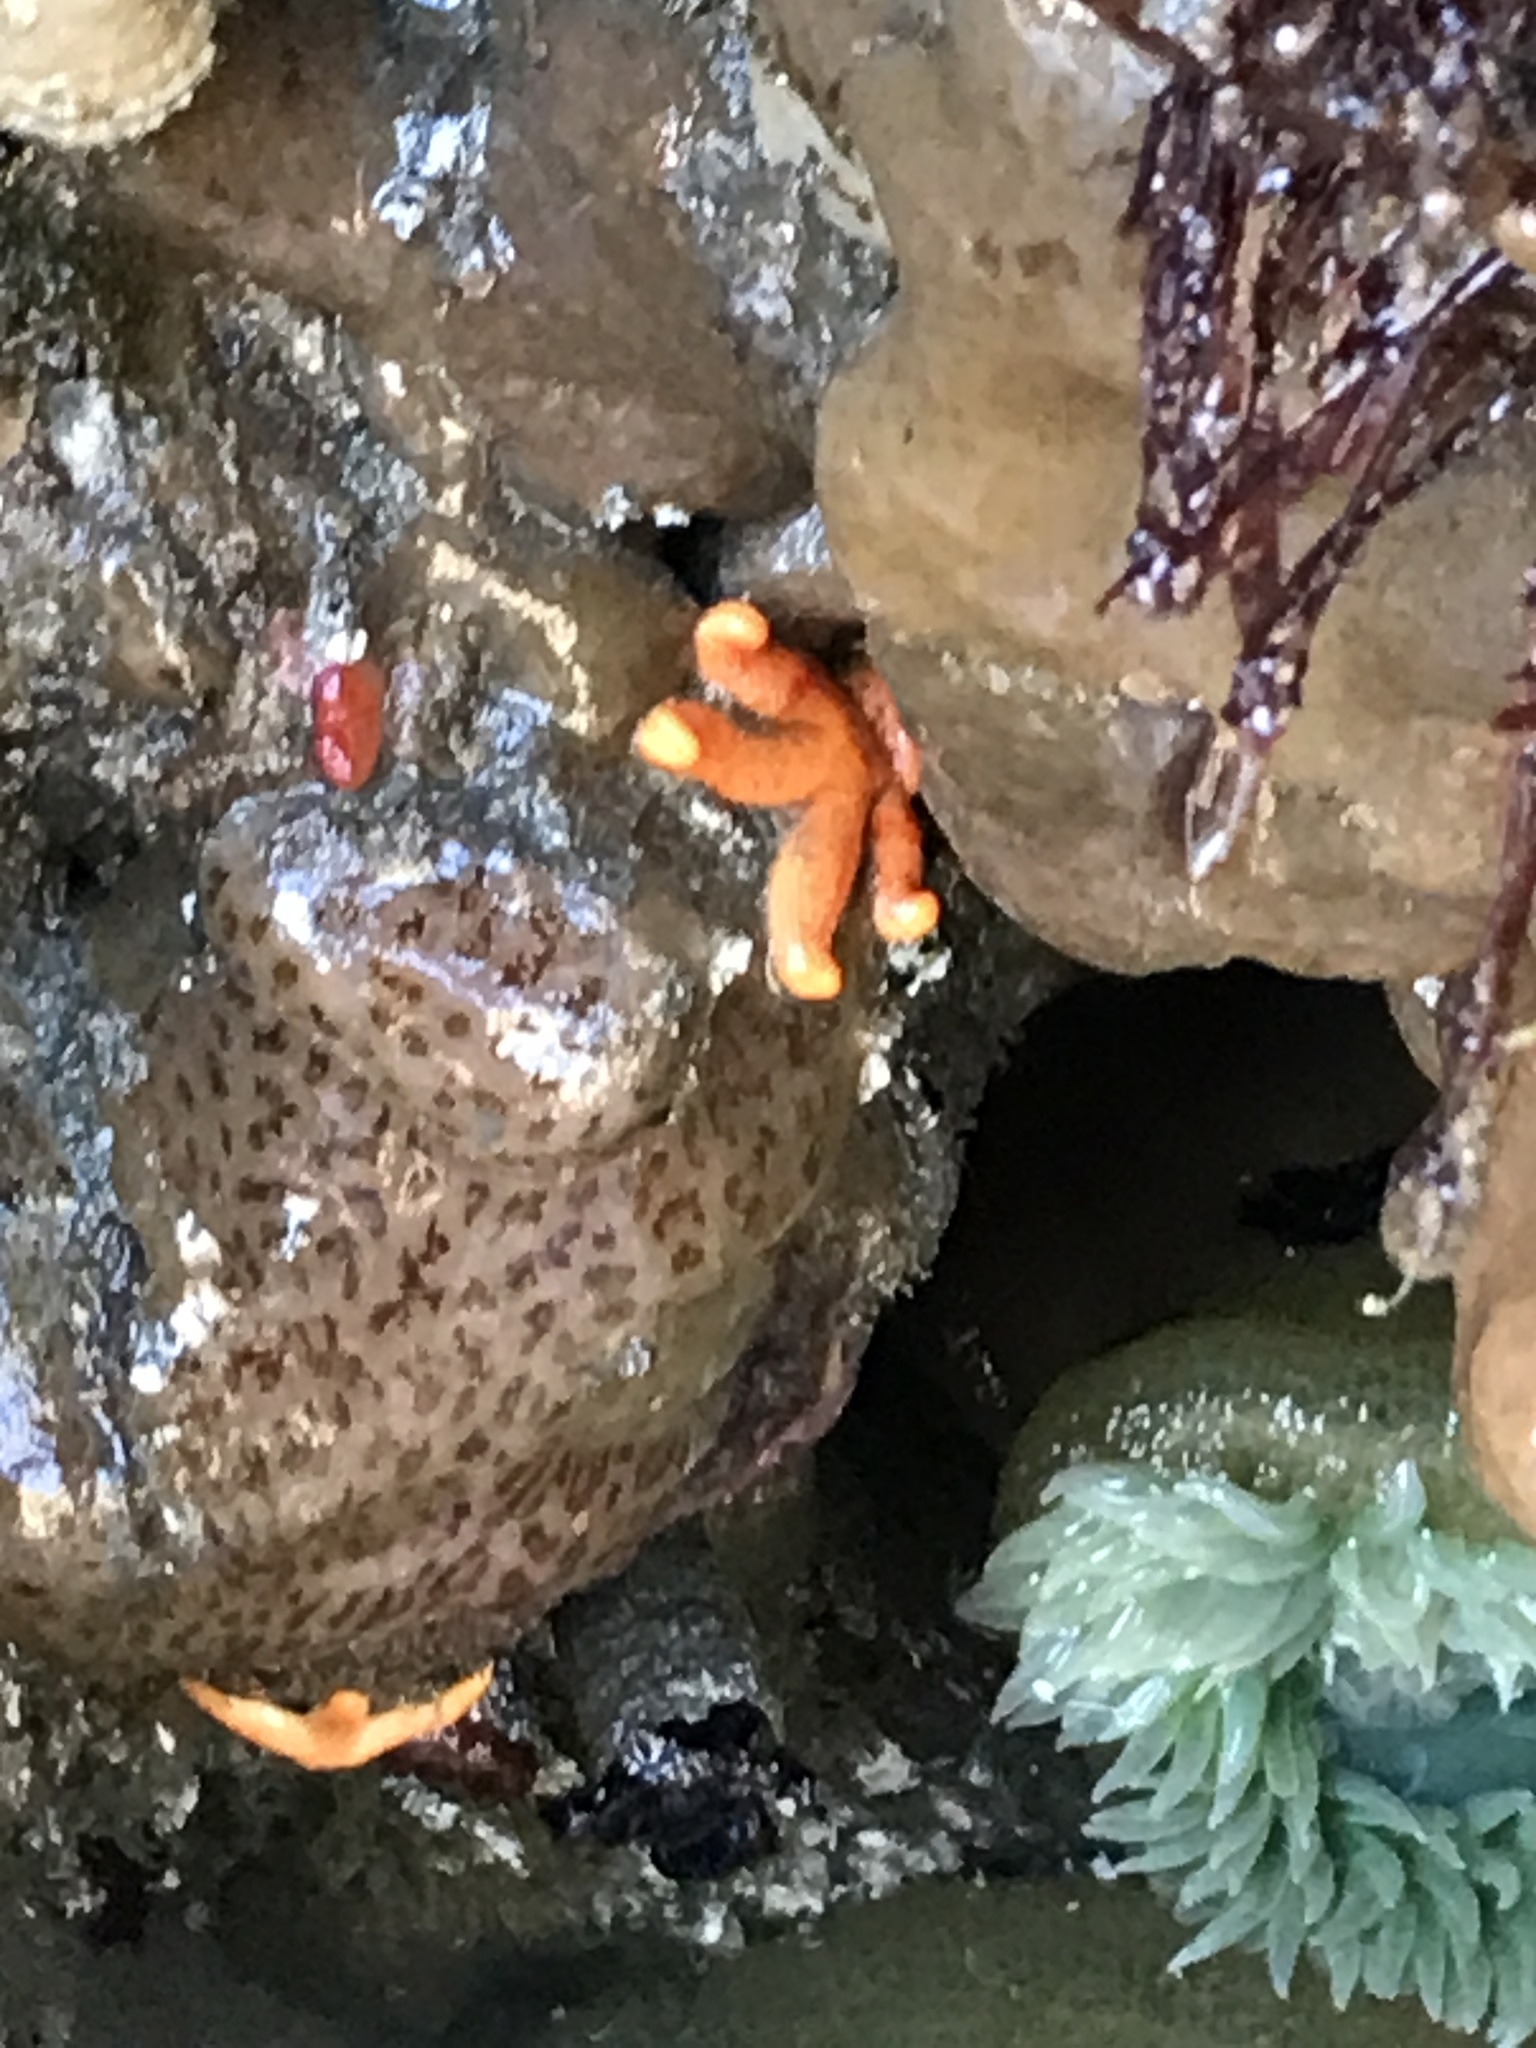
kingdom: Animalia
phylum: Echinodermata
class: Asteroidea
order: Spinulosida
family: Echinasteridae
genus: Henricia
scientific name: Henricia
